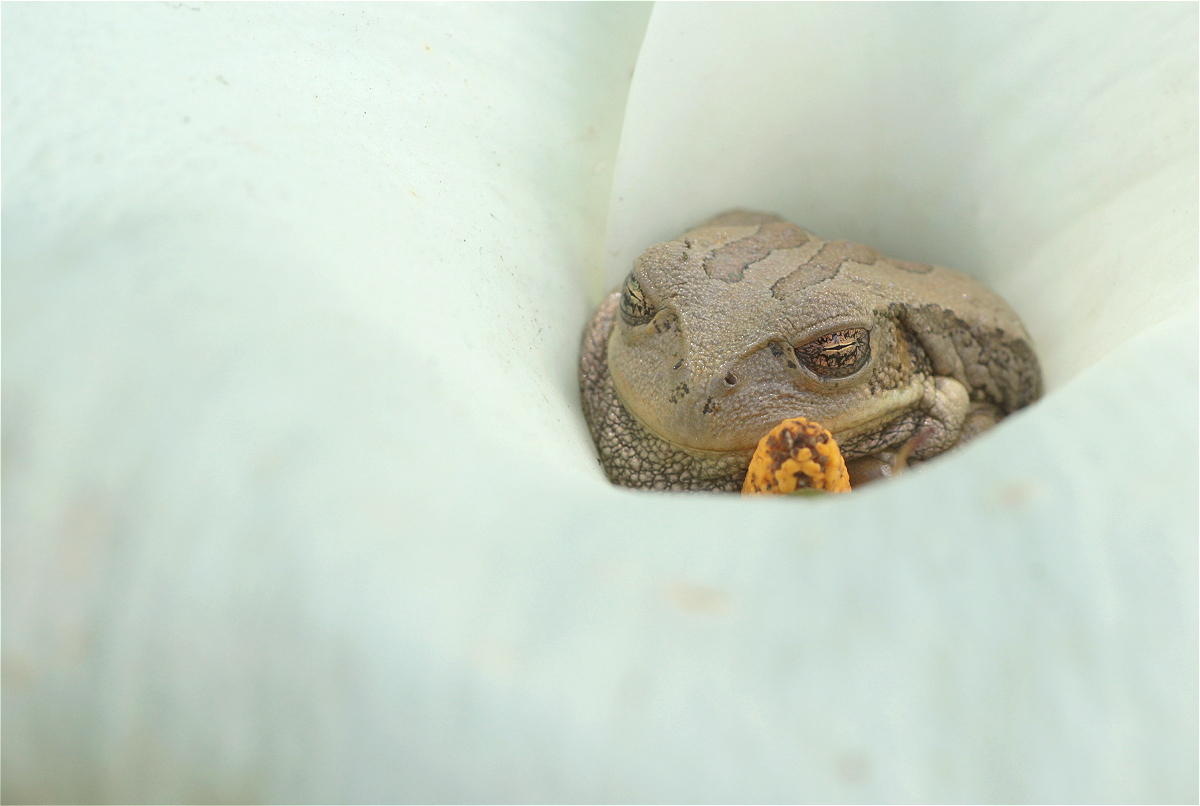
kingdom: Animalia
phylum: Chordata
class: Amphibia
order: Anura
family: Hemiphractidae
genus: Gastrotheca
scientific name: Gastrotheca cuencana
